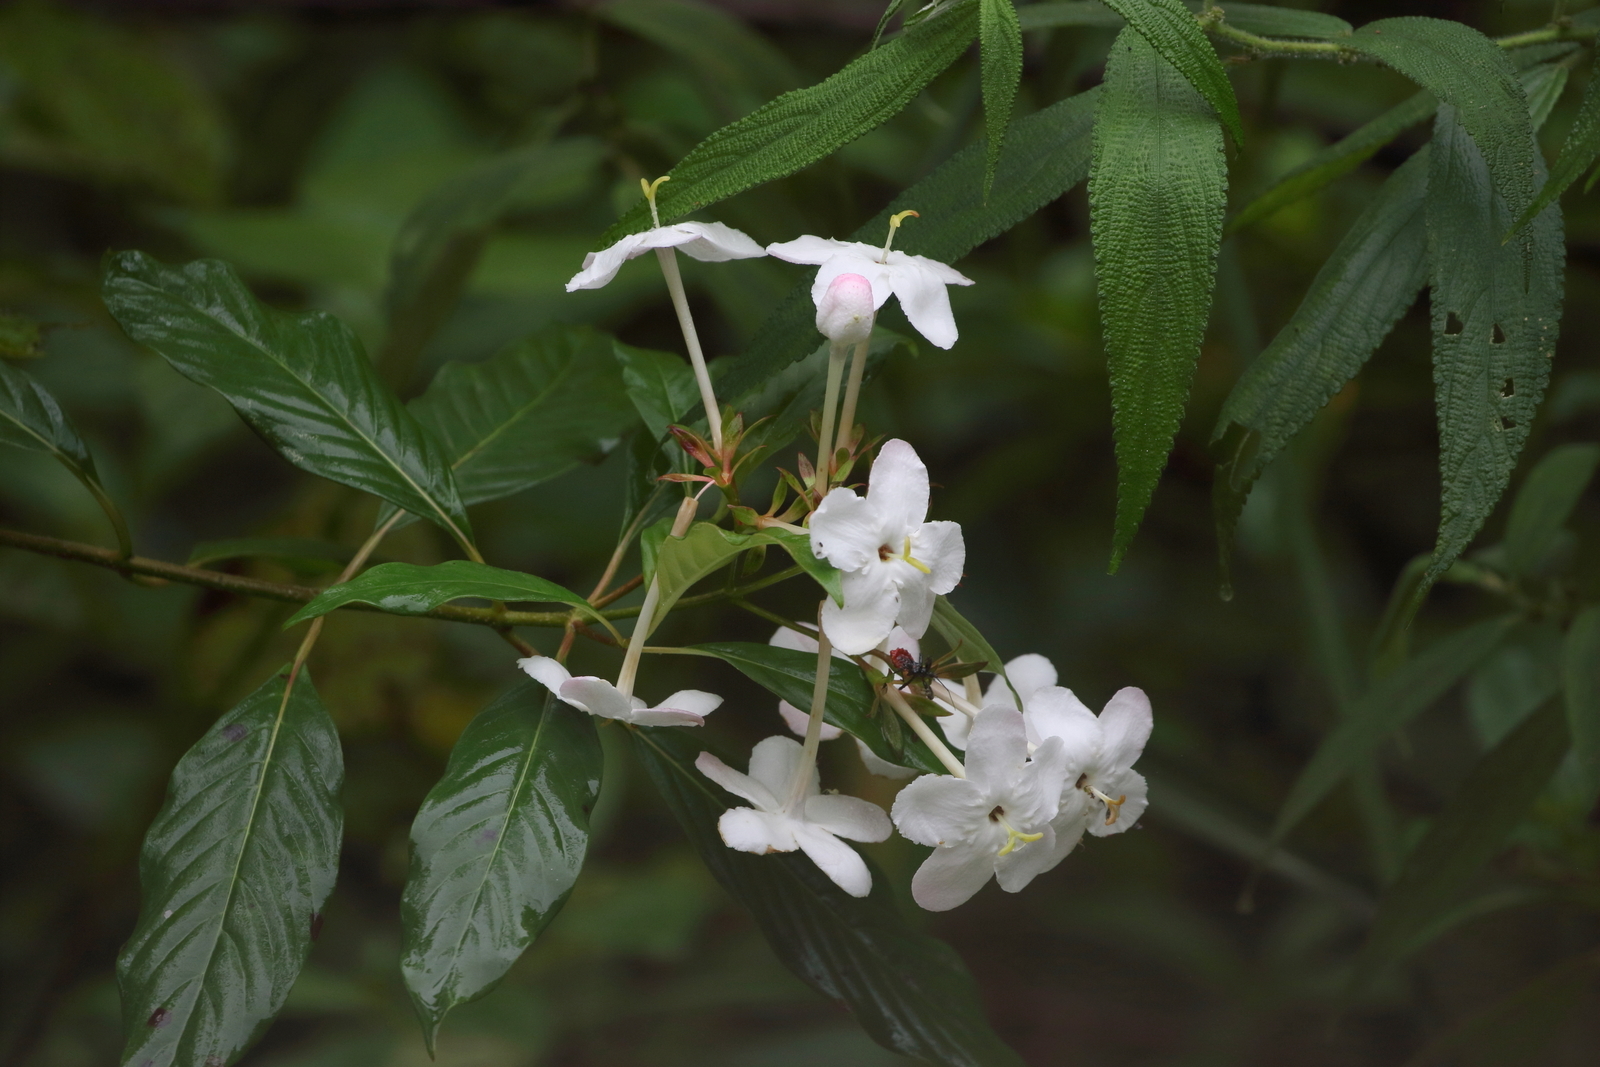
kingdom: Plantae
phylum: Tracheophyta
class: Magnoliopsida
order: Gentianales
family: Rubiaceae
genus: Luculia
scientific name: Luculia pinceana
